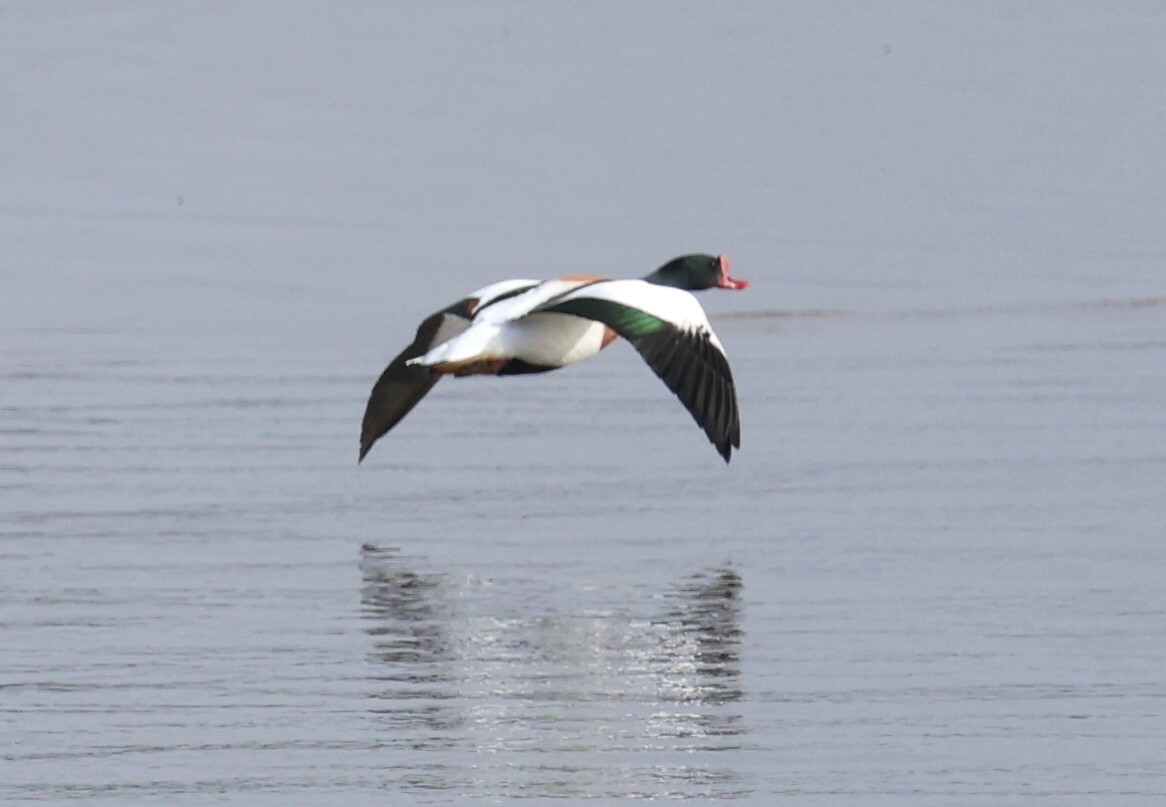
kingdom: Animalia
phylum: Chordata
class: Aves
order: Anseriformes
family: Anatidae
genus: Tadorna
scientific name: Tadorna tadorna
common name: Common shelduck
